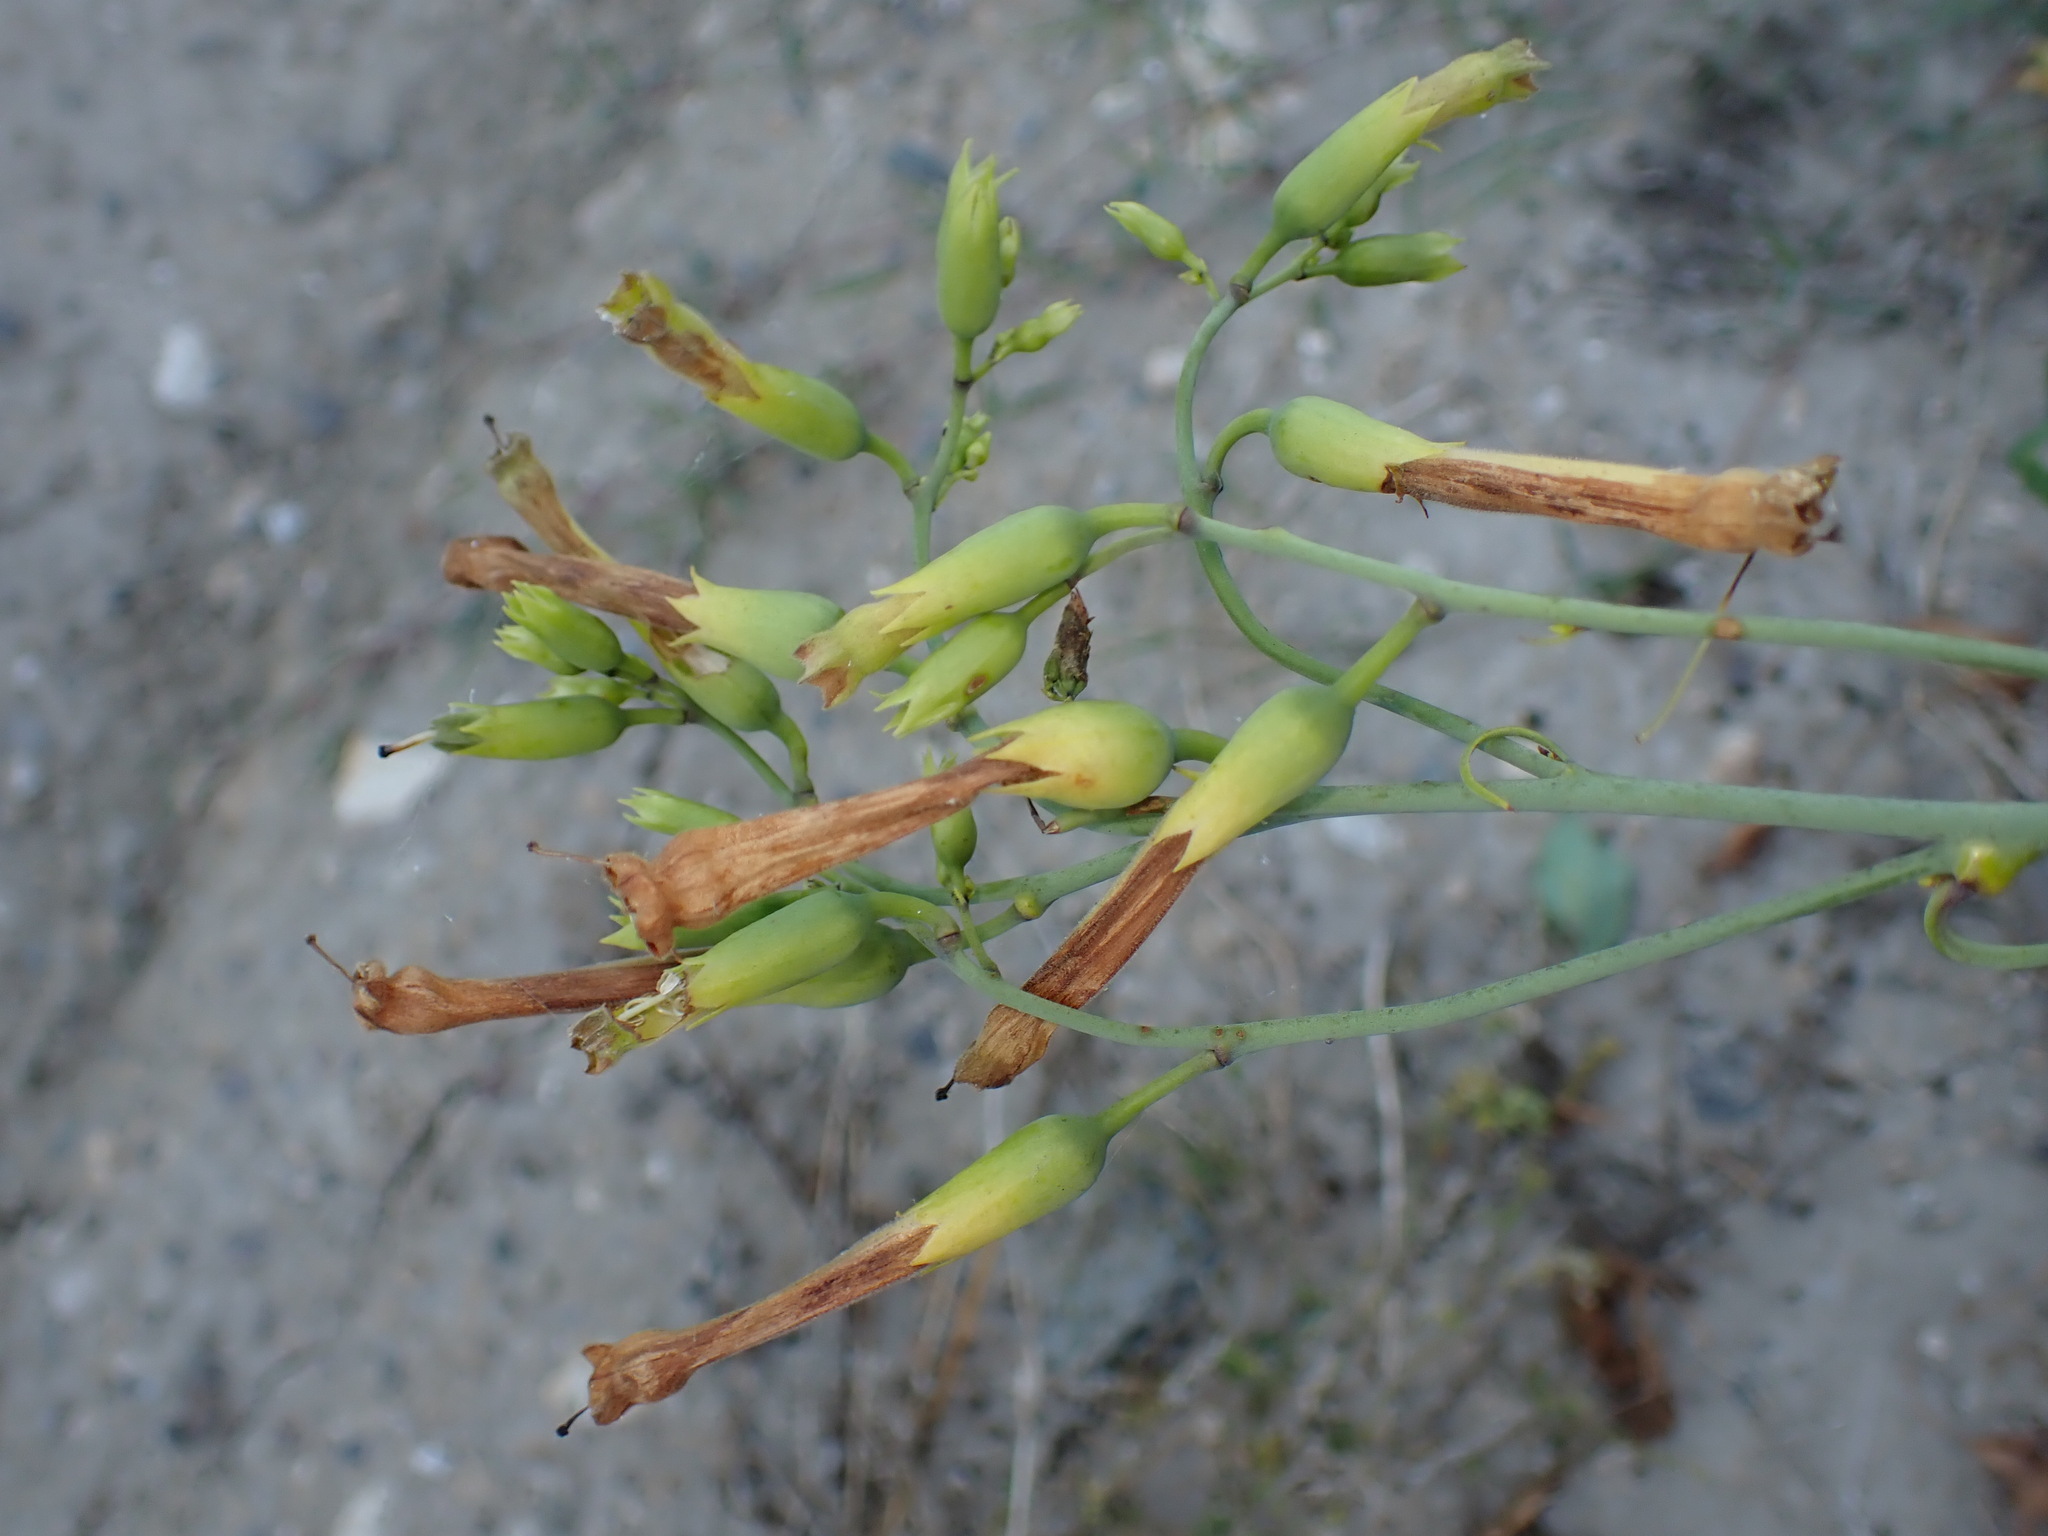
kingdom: Plantae
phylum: Tracheophyta
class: Magnoliopsida
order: Solanales
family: Solanaceae
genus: Nicotiana
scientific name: Nicotiana glauca
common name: Tree tobacco
